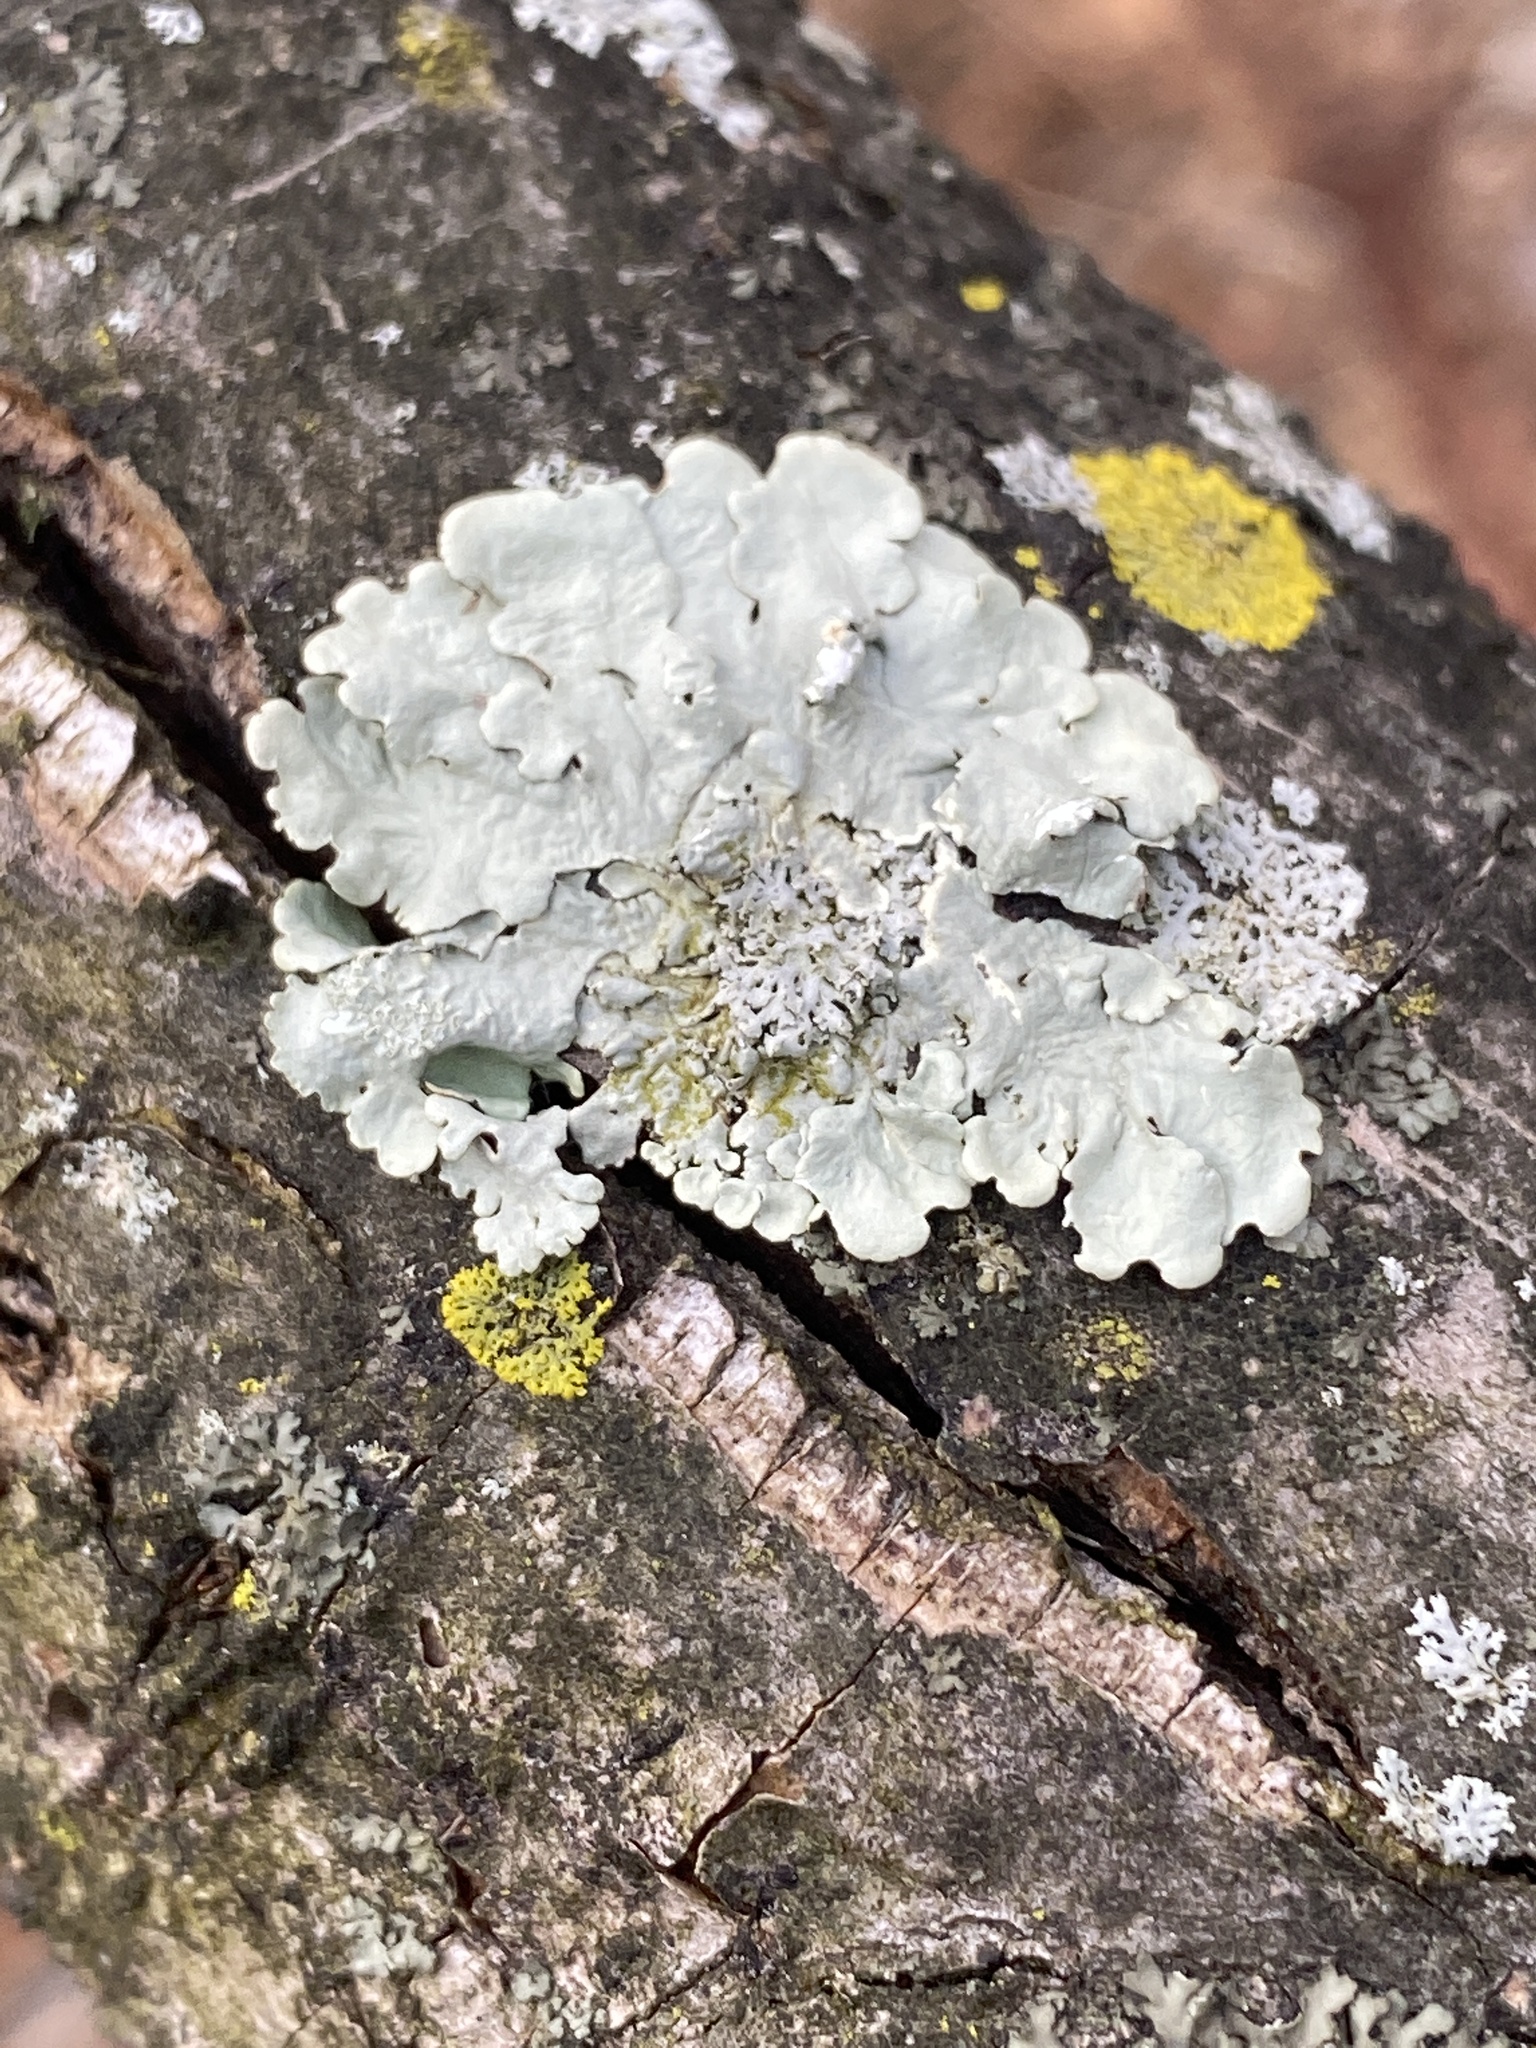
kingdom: Fungi
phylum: Ascomycota
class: Lecanoromycetes
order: Lecanorales
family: Parmeliaceae
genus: Flavoparmelia
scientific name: Flavoparmelia caperata
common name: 40-mile per hour lichen
